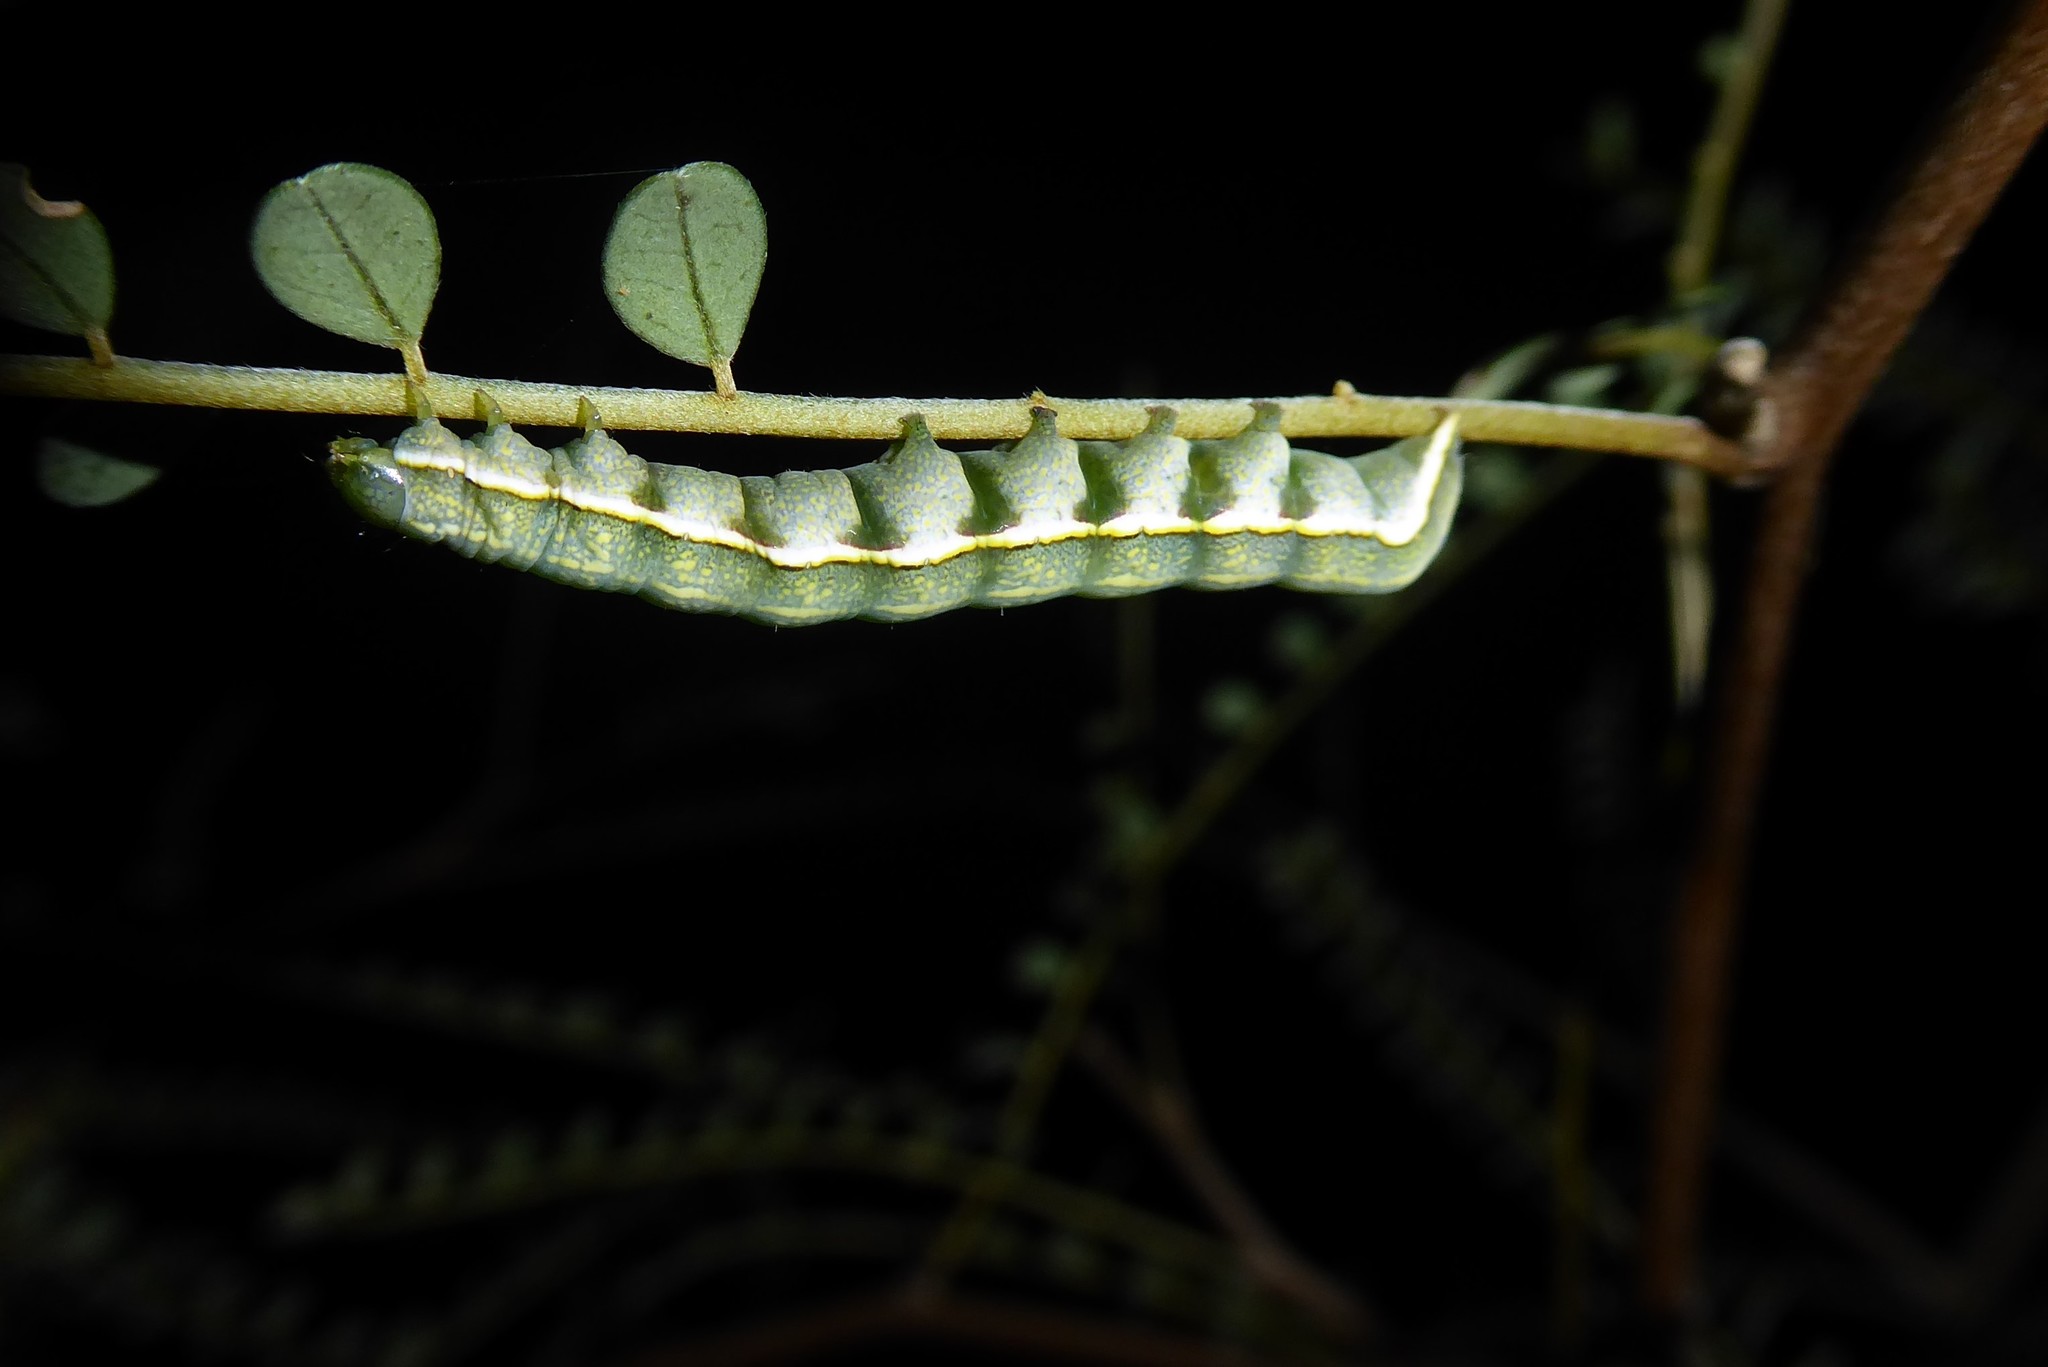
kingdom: Animalia
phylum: Arthropoda
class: Insecta
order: Lepidoptera
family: Noctuidae
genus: Meterana
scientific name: Meterana decorata
